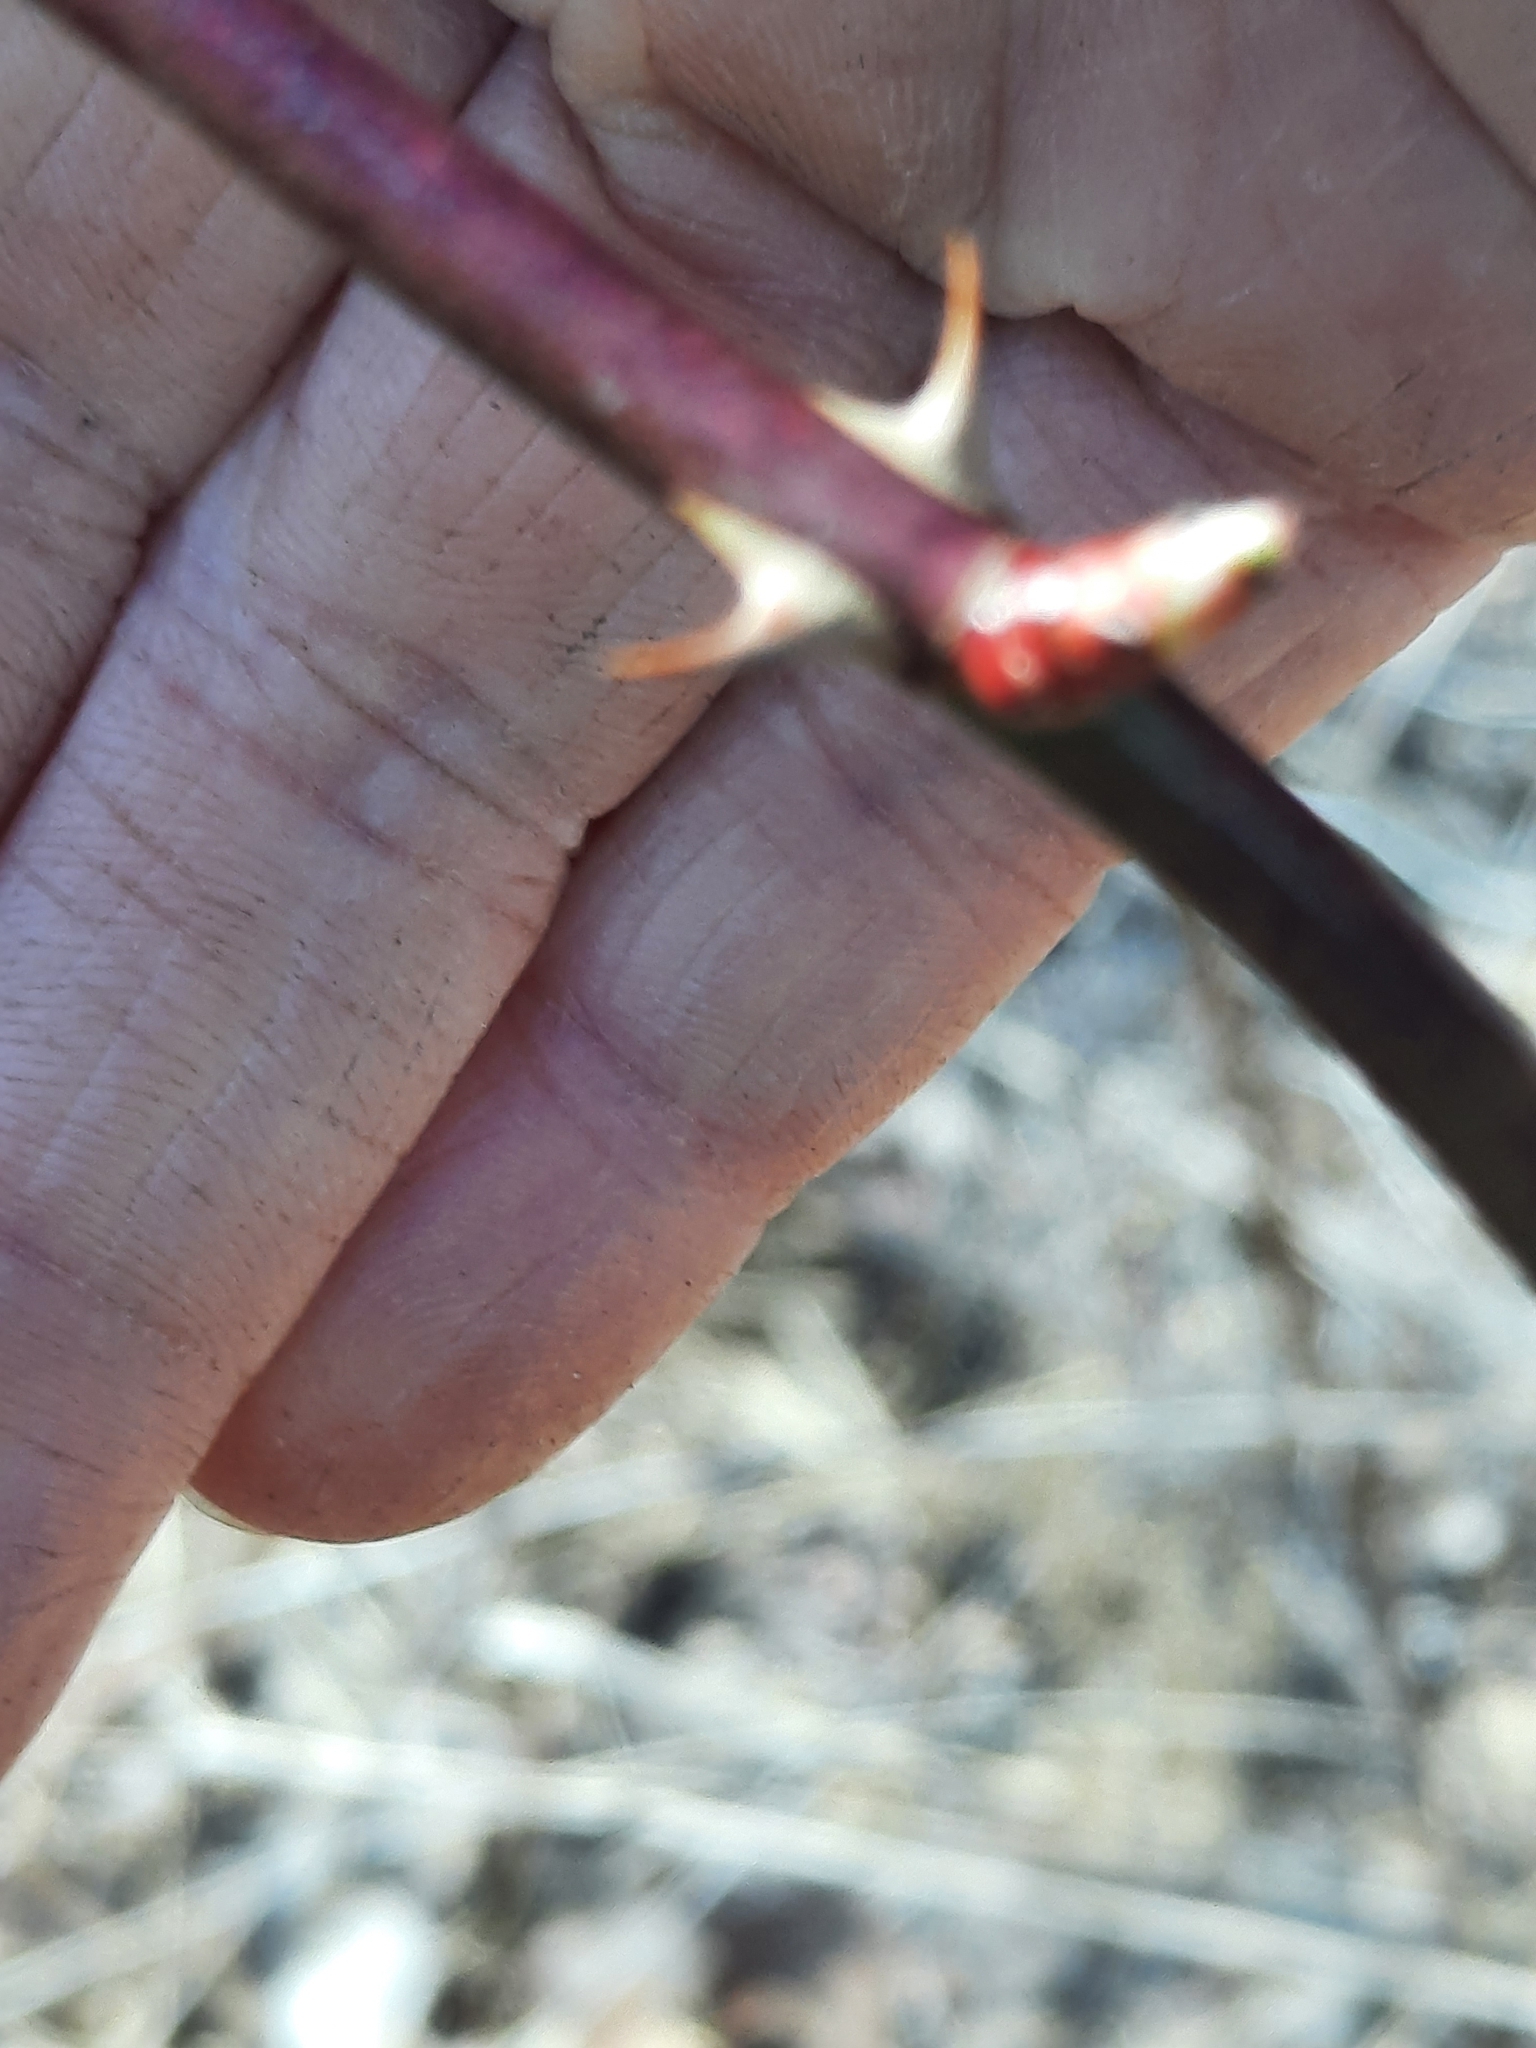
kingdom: Plantae
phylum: Tracheophyta
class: Magnoliopsida
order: Rosales
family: Rosaceae
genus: Rosa
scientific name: Rosa multiflora
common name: Multiflora rose
